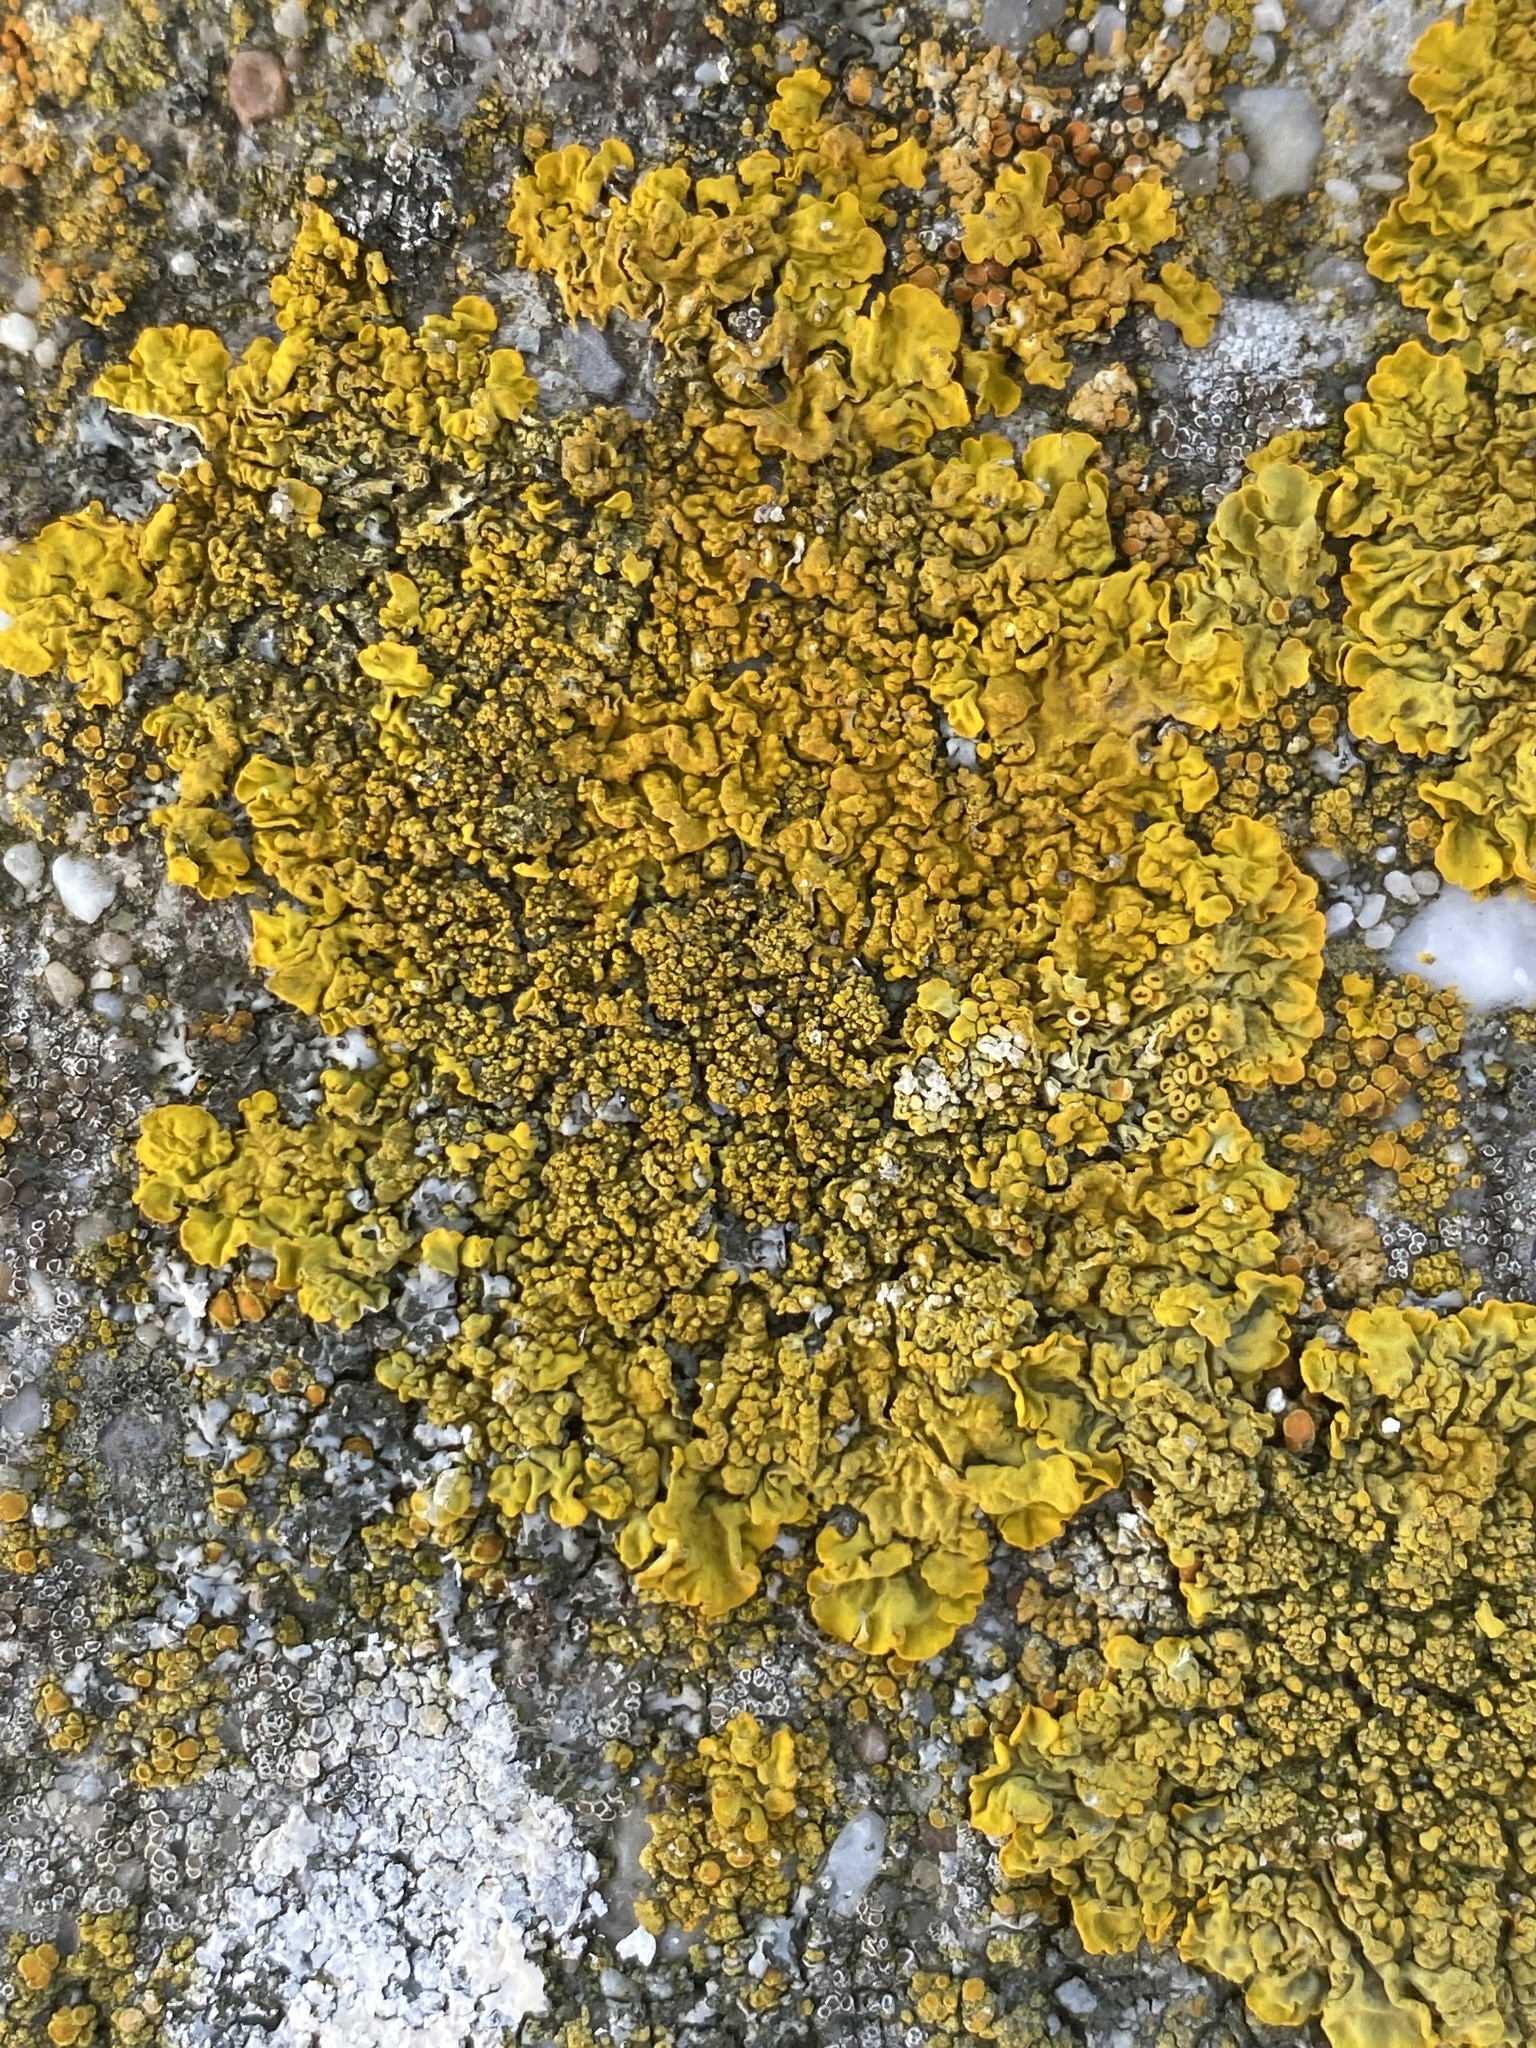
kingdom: Fungi
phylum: Ascomycota
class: Lecanoromycetes
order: Teloschistales
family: Teloschistaceae
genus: Xanthoria
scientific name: Xanthoria calcicola
